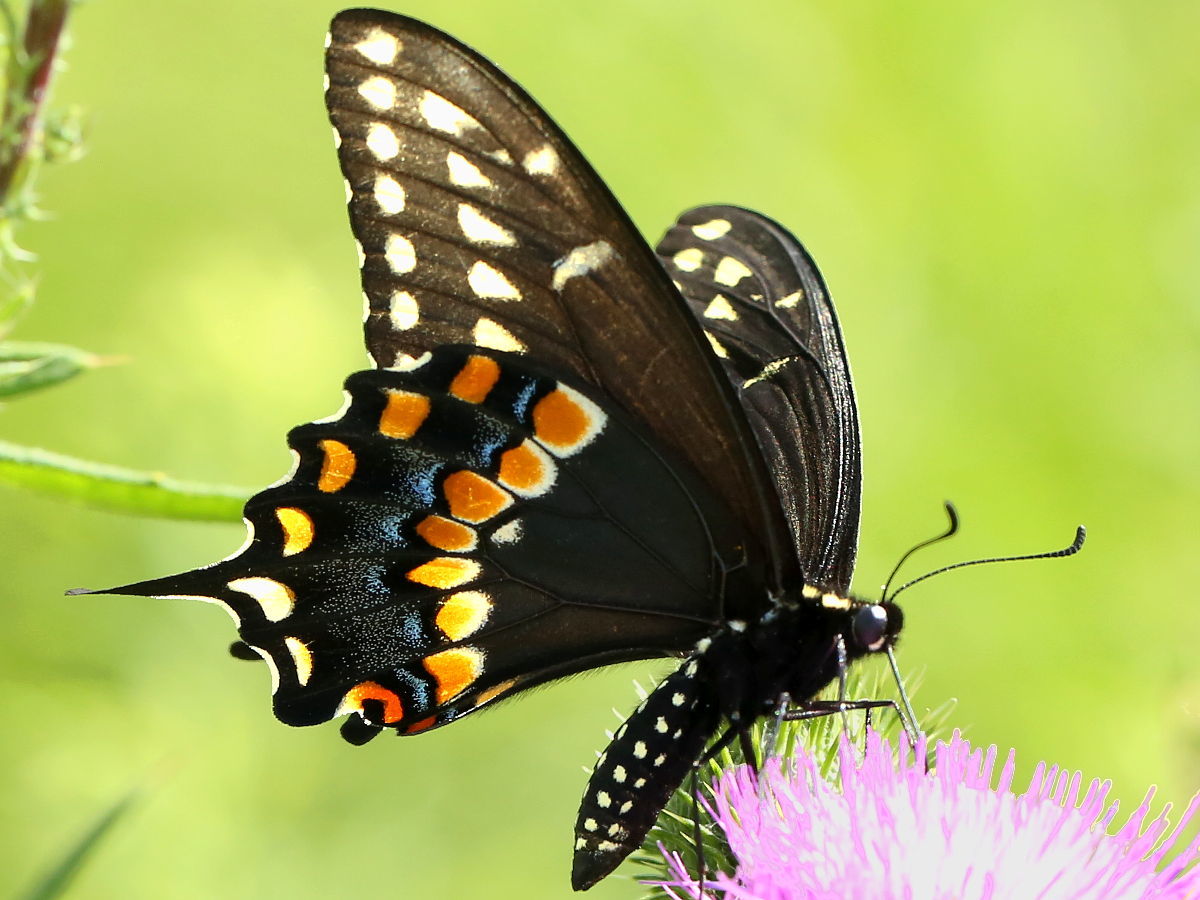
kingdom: Animalia
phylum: Arthropoda
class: Insecta
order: Lepidoptera
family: Papilionidae
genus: Papilio
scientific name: Papilio polyxenes
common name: Black swallowtail
